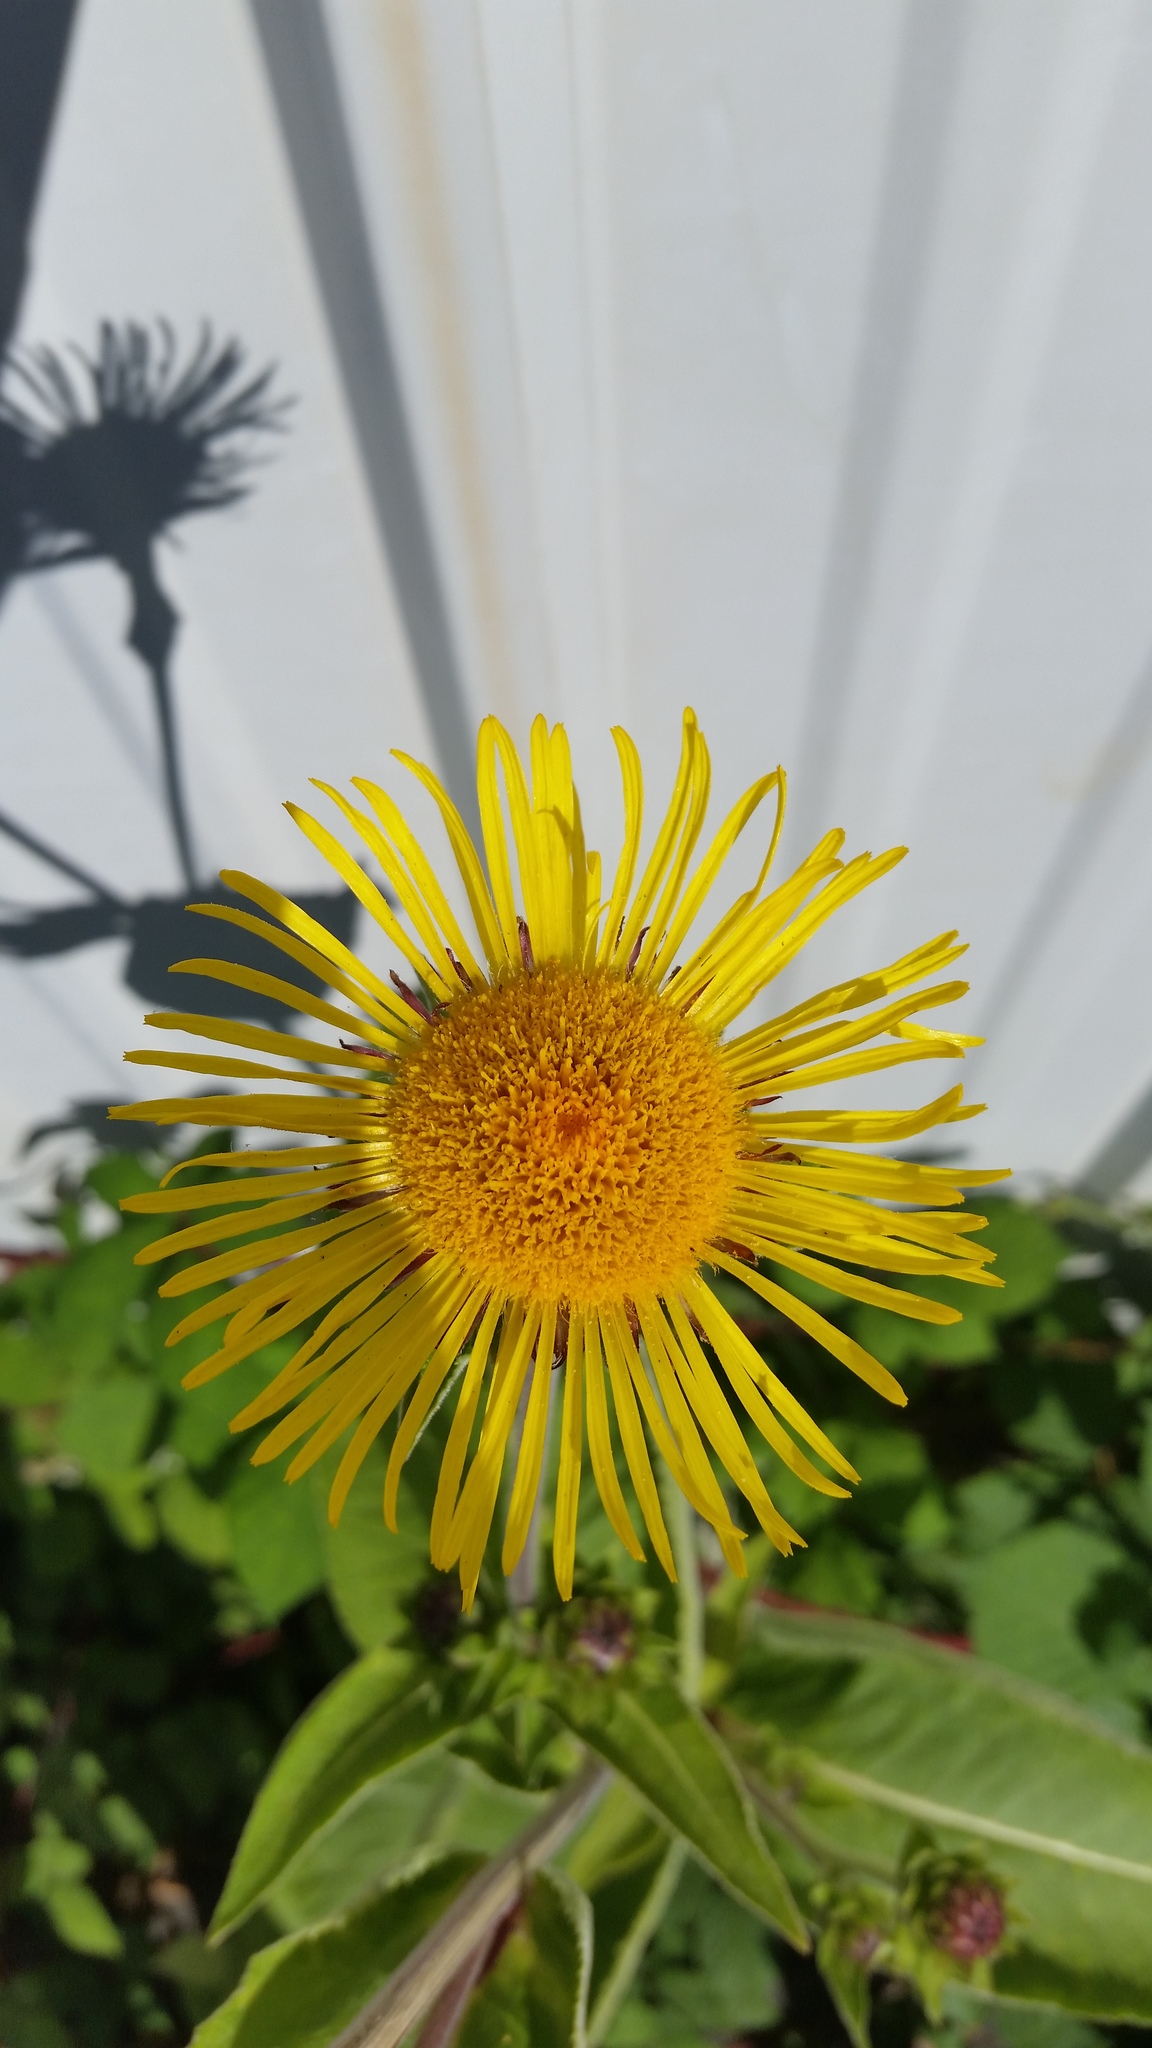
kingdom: Plantae
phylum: Tracheophyta
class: Magnoliopsida
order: Asterales
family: Asteraceae
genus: Inula
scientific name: Inula helenium
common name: Elecampane
